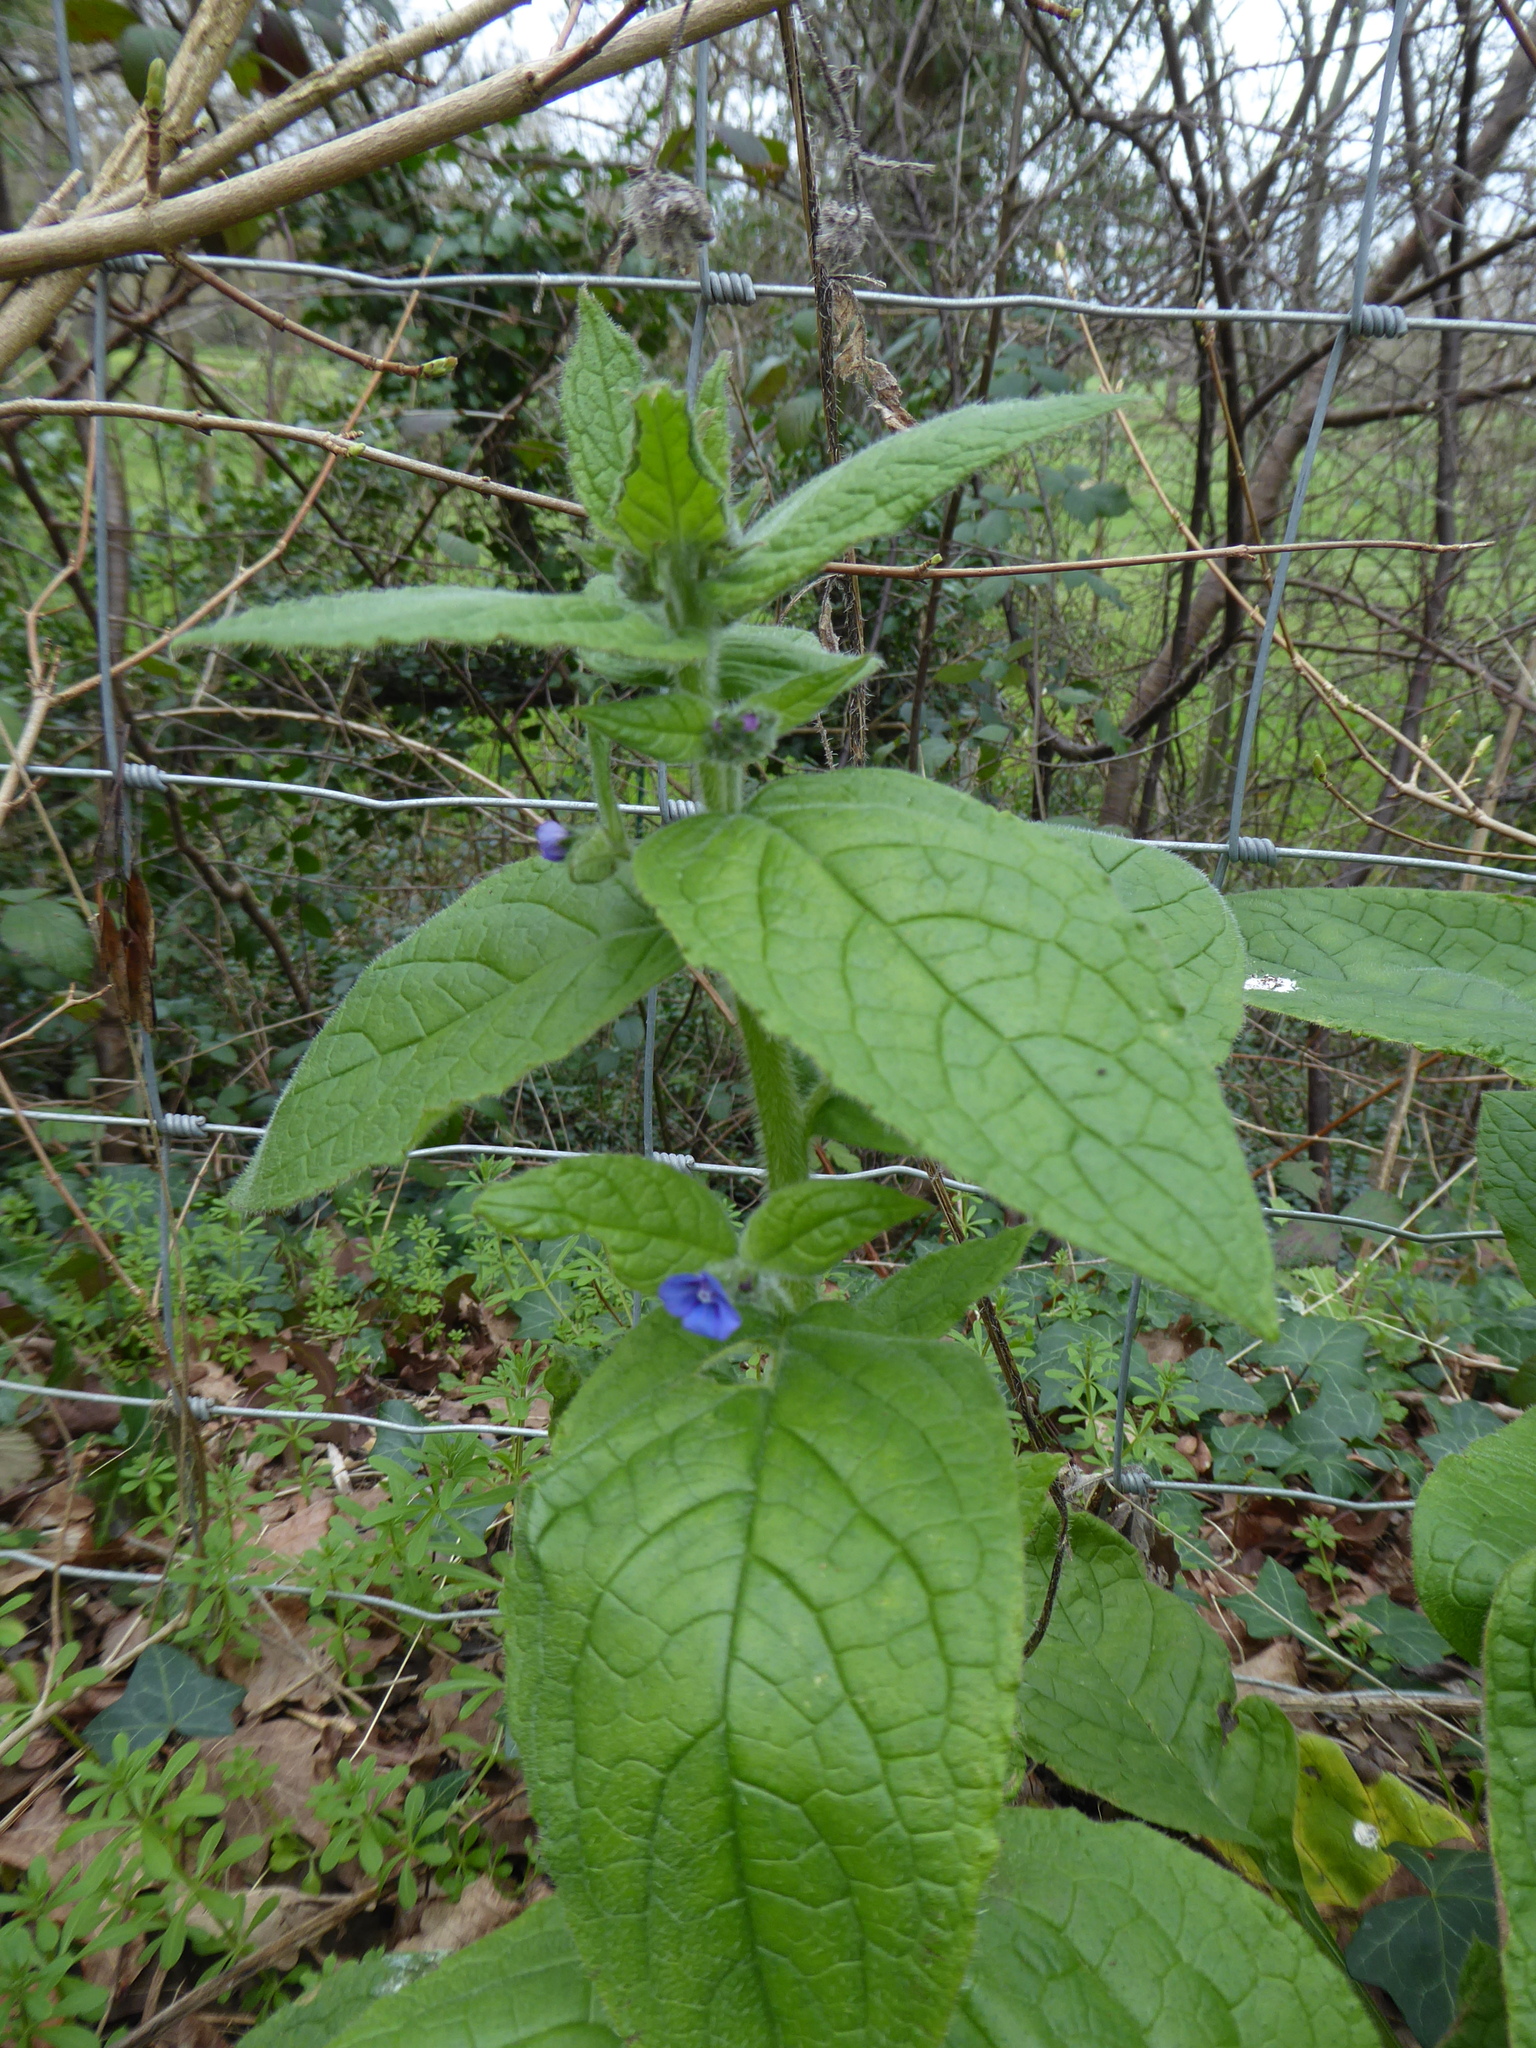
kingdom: Plantae
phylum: Tracheophyta
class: Magnoliopsida
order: Boraginales
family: Boraginaceae
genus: Pentaglottis
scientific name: Pentaglottis sempervirens
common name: Green alkanet
